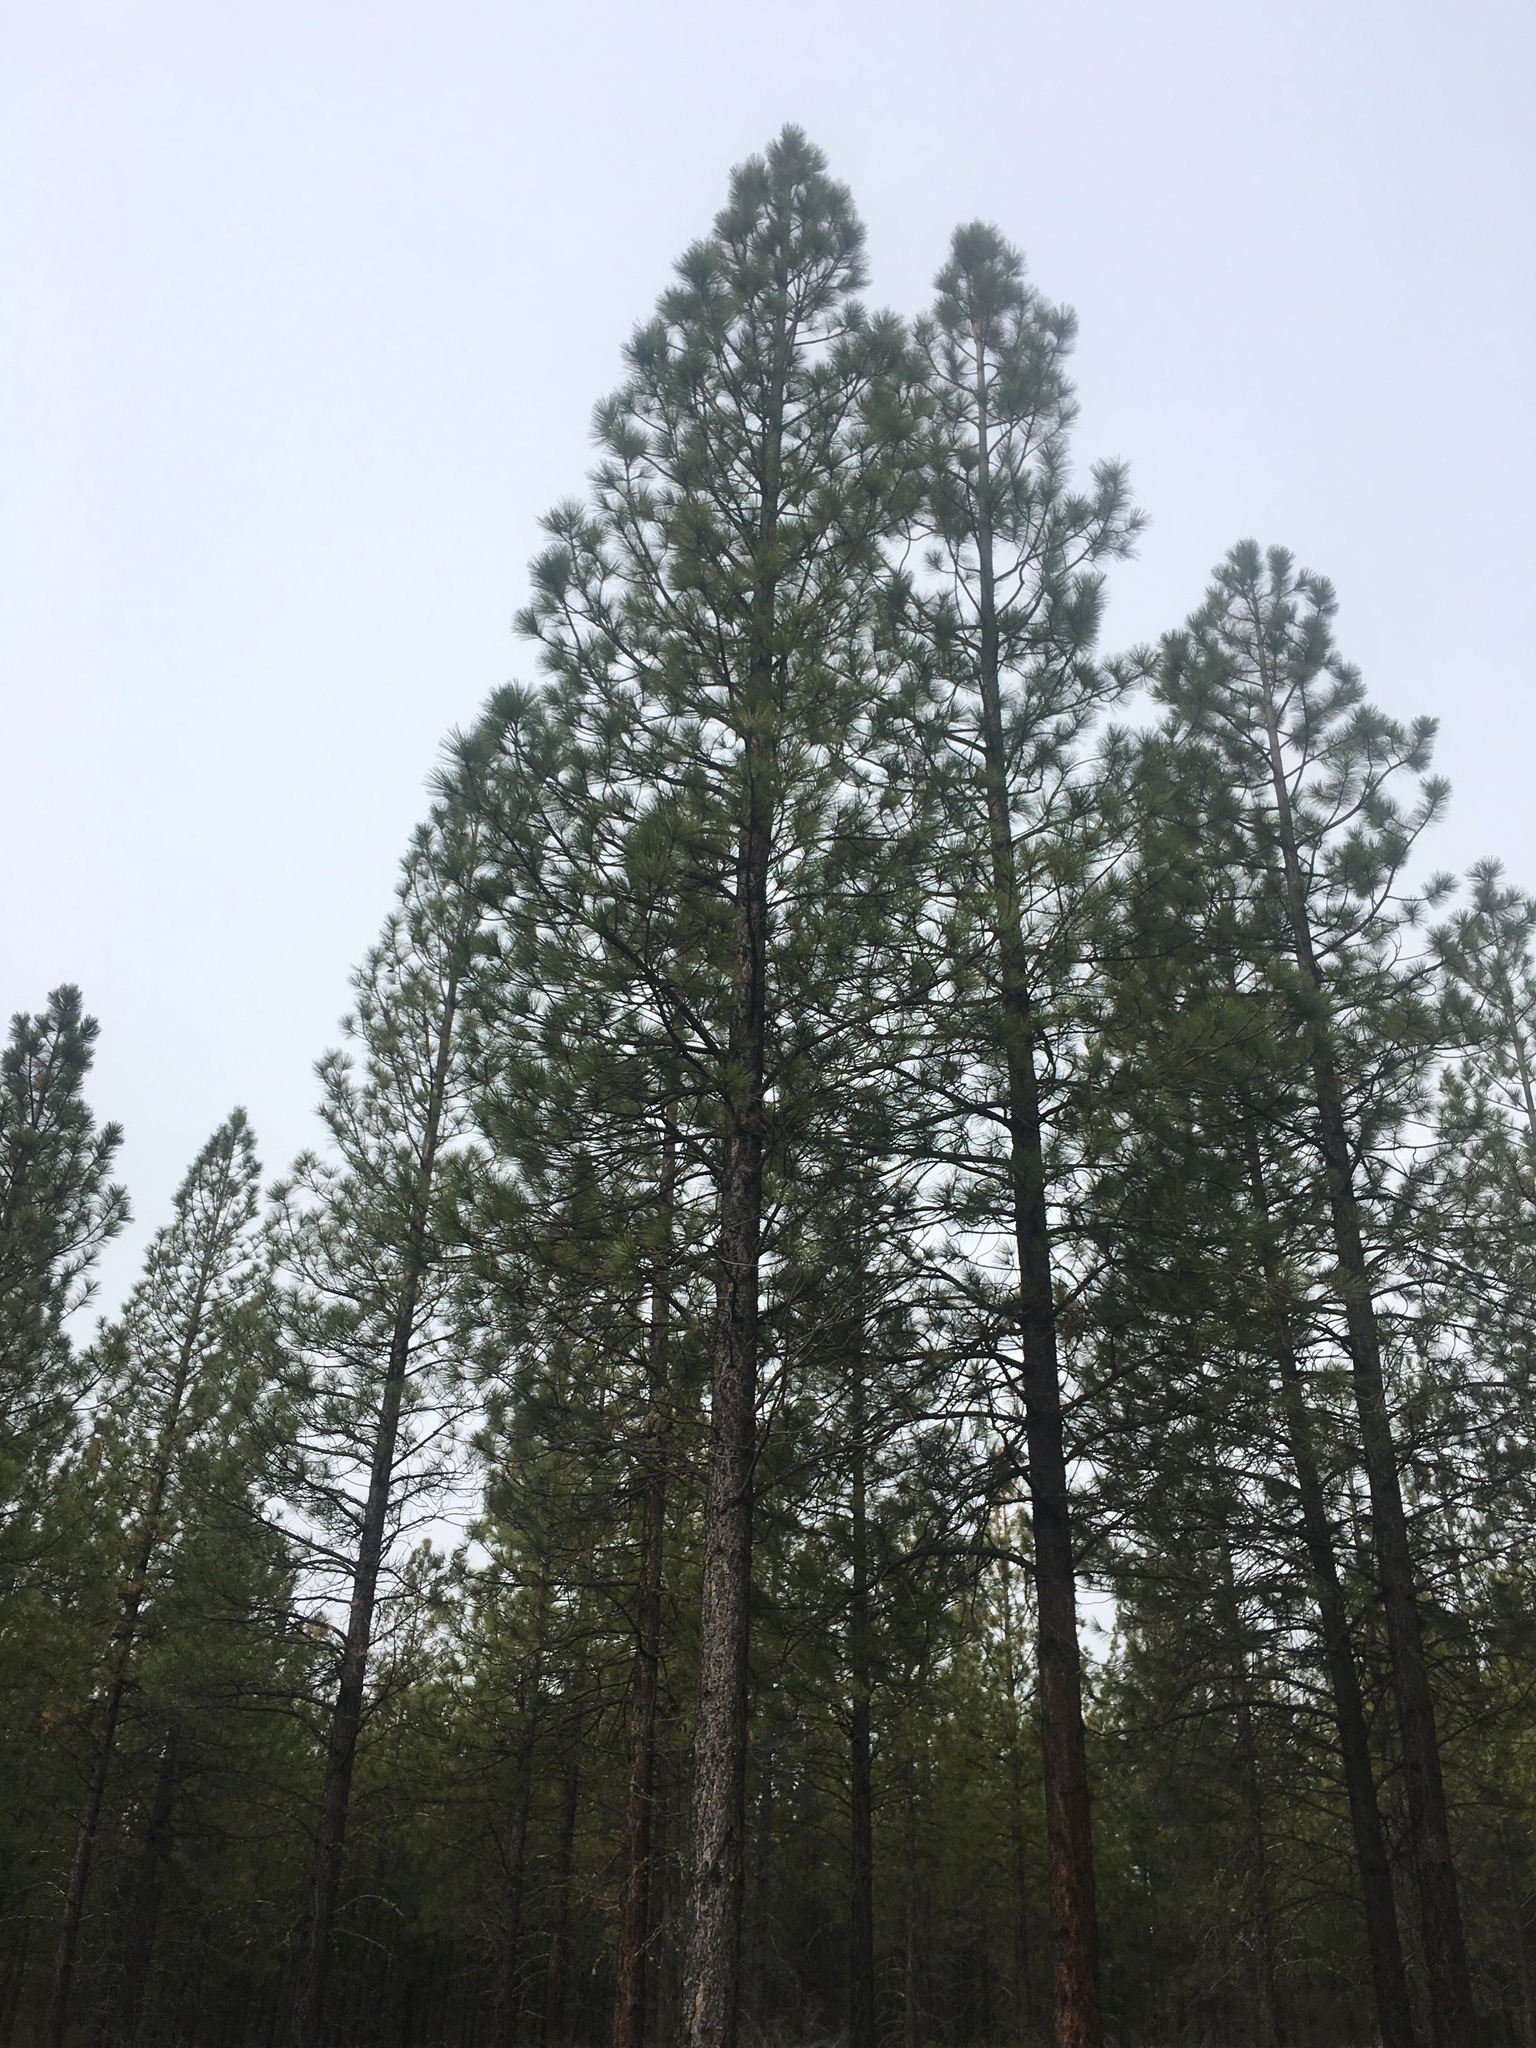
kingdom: Plantae
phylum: Tracheophyta
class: Pinopsida
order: Pinales
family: Pinaceae
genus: Pinus
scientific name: Pinus ponderosa
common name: Western yellow-pine
